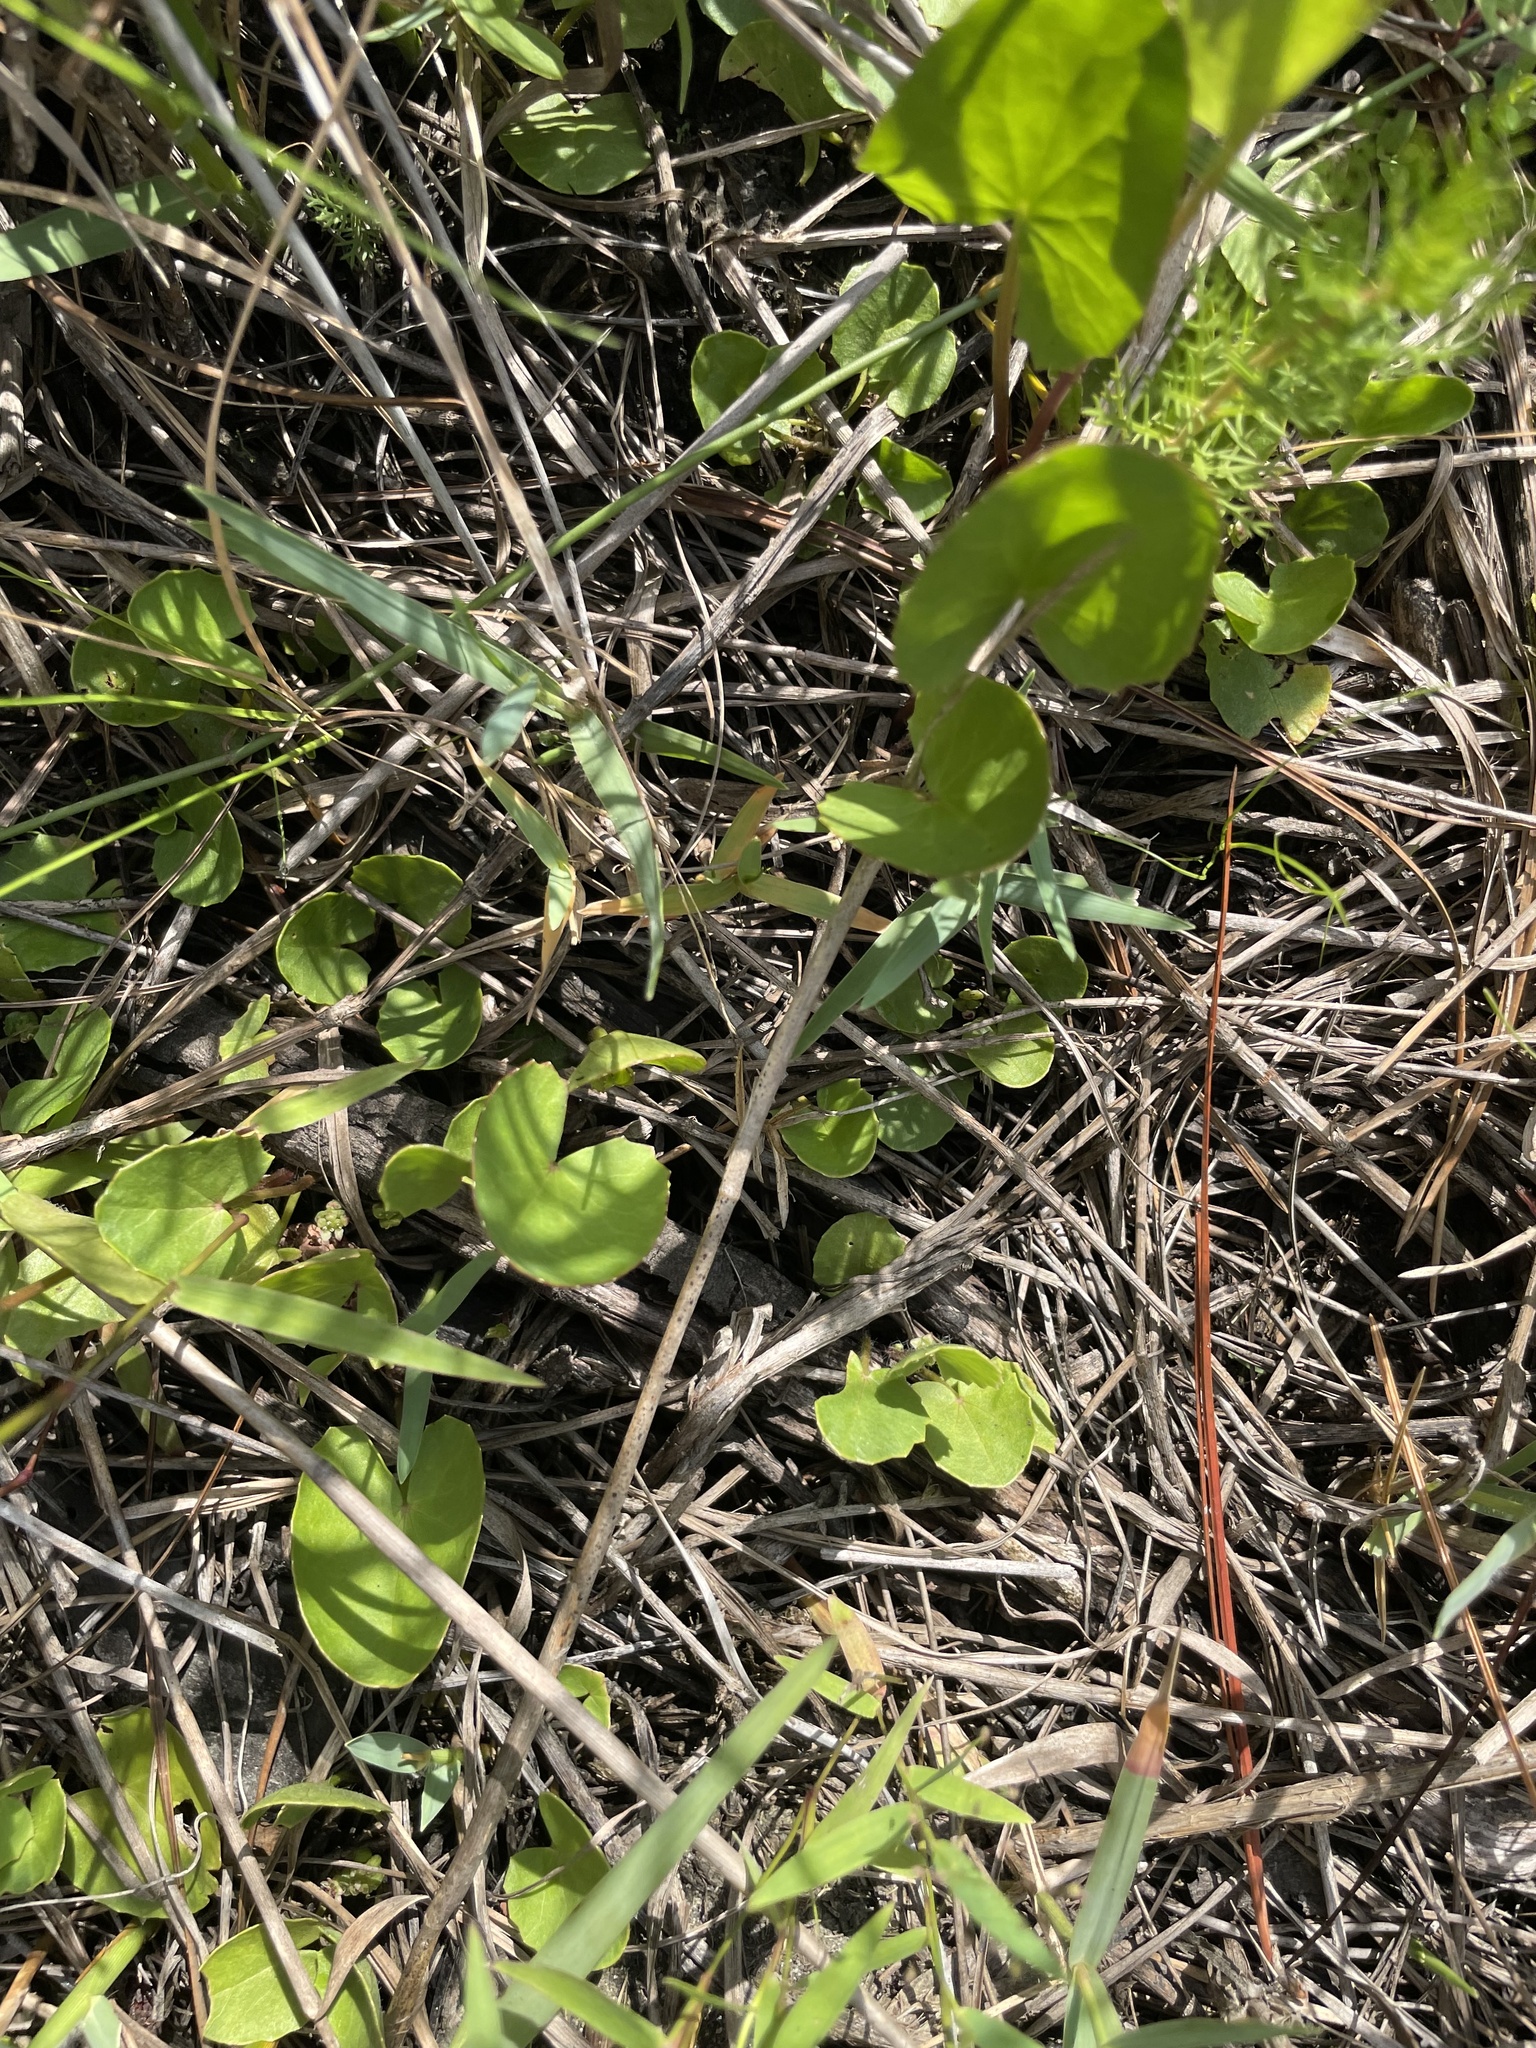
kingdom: Plantae
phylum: Tracheophyta
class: Magnoliopsida
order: Apiales
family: Apiaceae
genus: Centella
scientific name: Centella erecta
